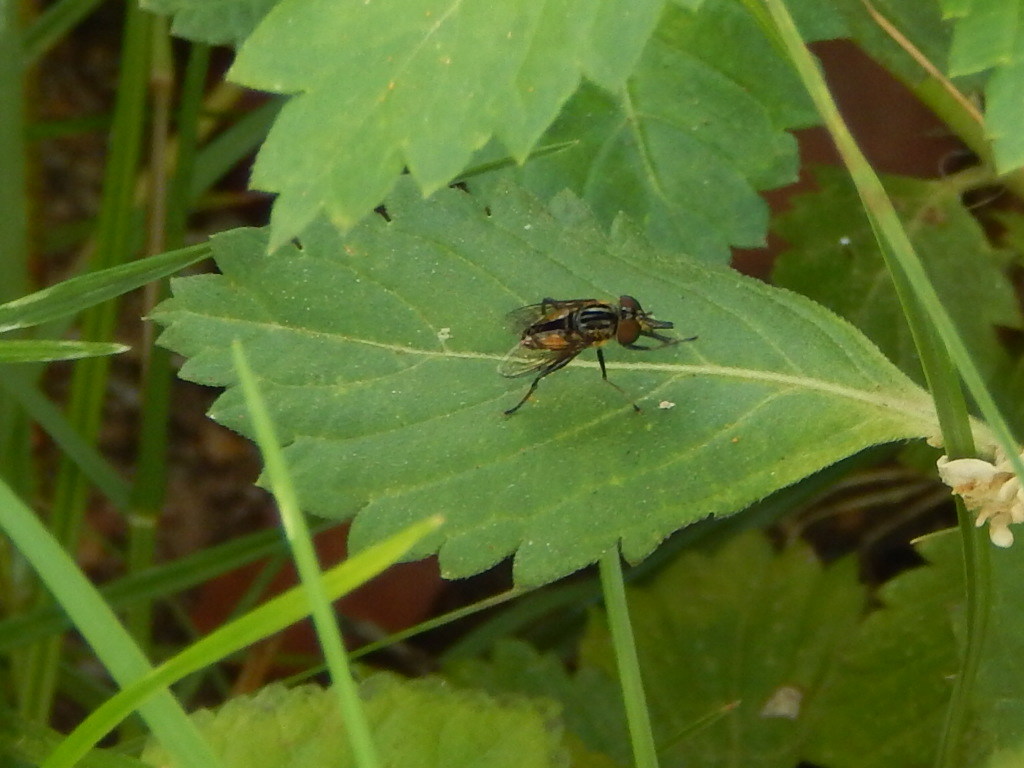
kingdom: Animalia
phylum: Arthropoda
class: Insecta
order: Diptera
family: Syrphidae
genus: Lycastrirhyncha
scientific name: Lycastrirhyncha nitens
